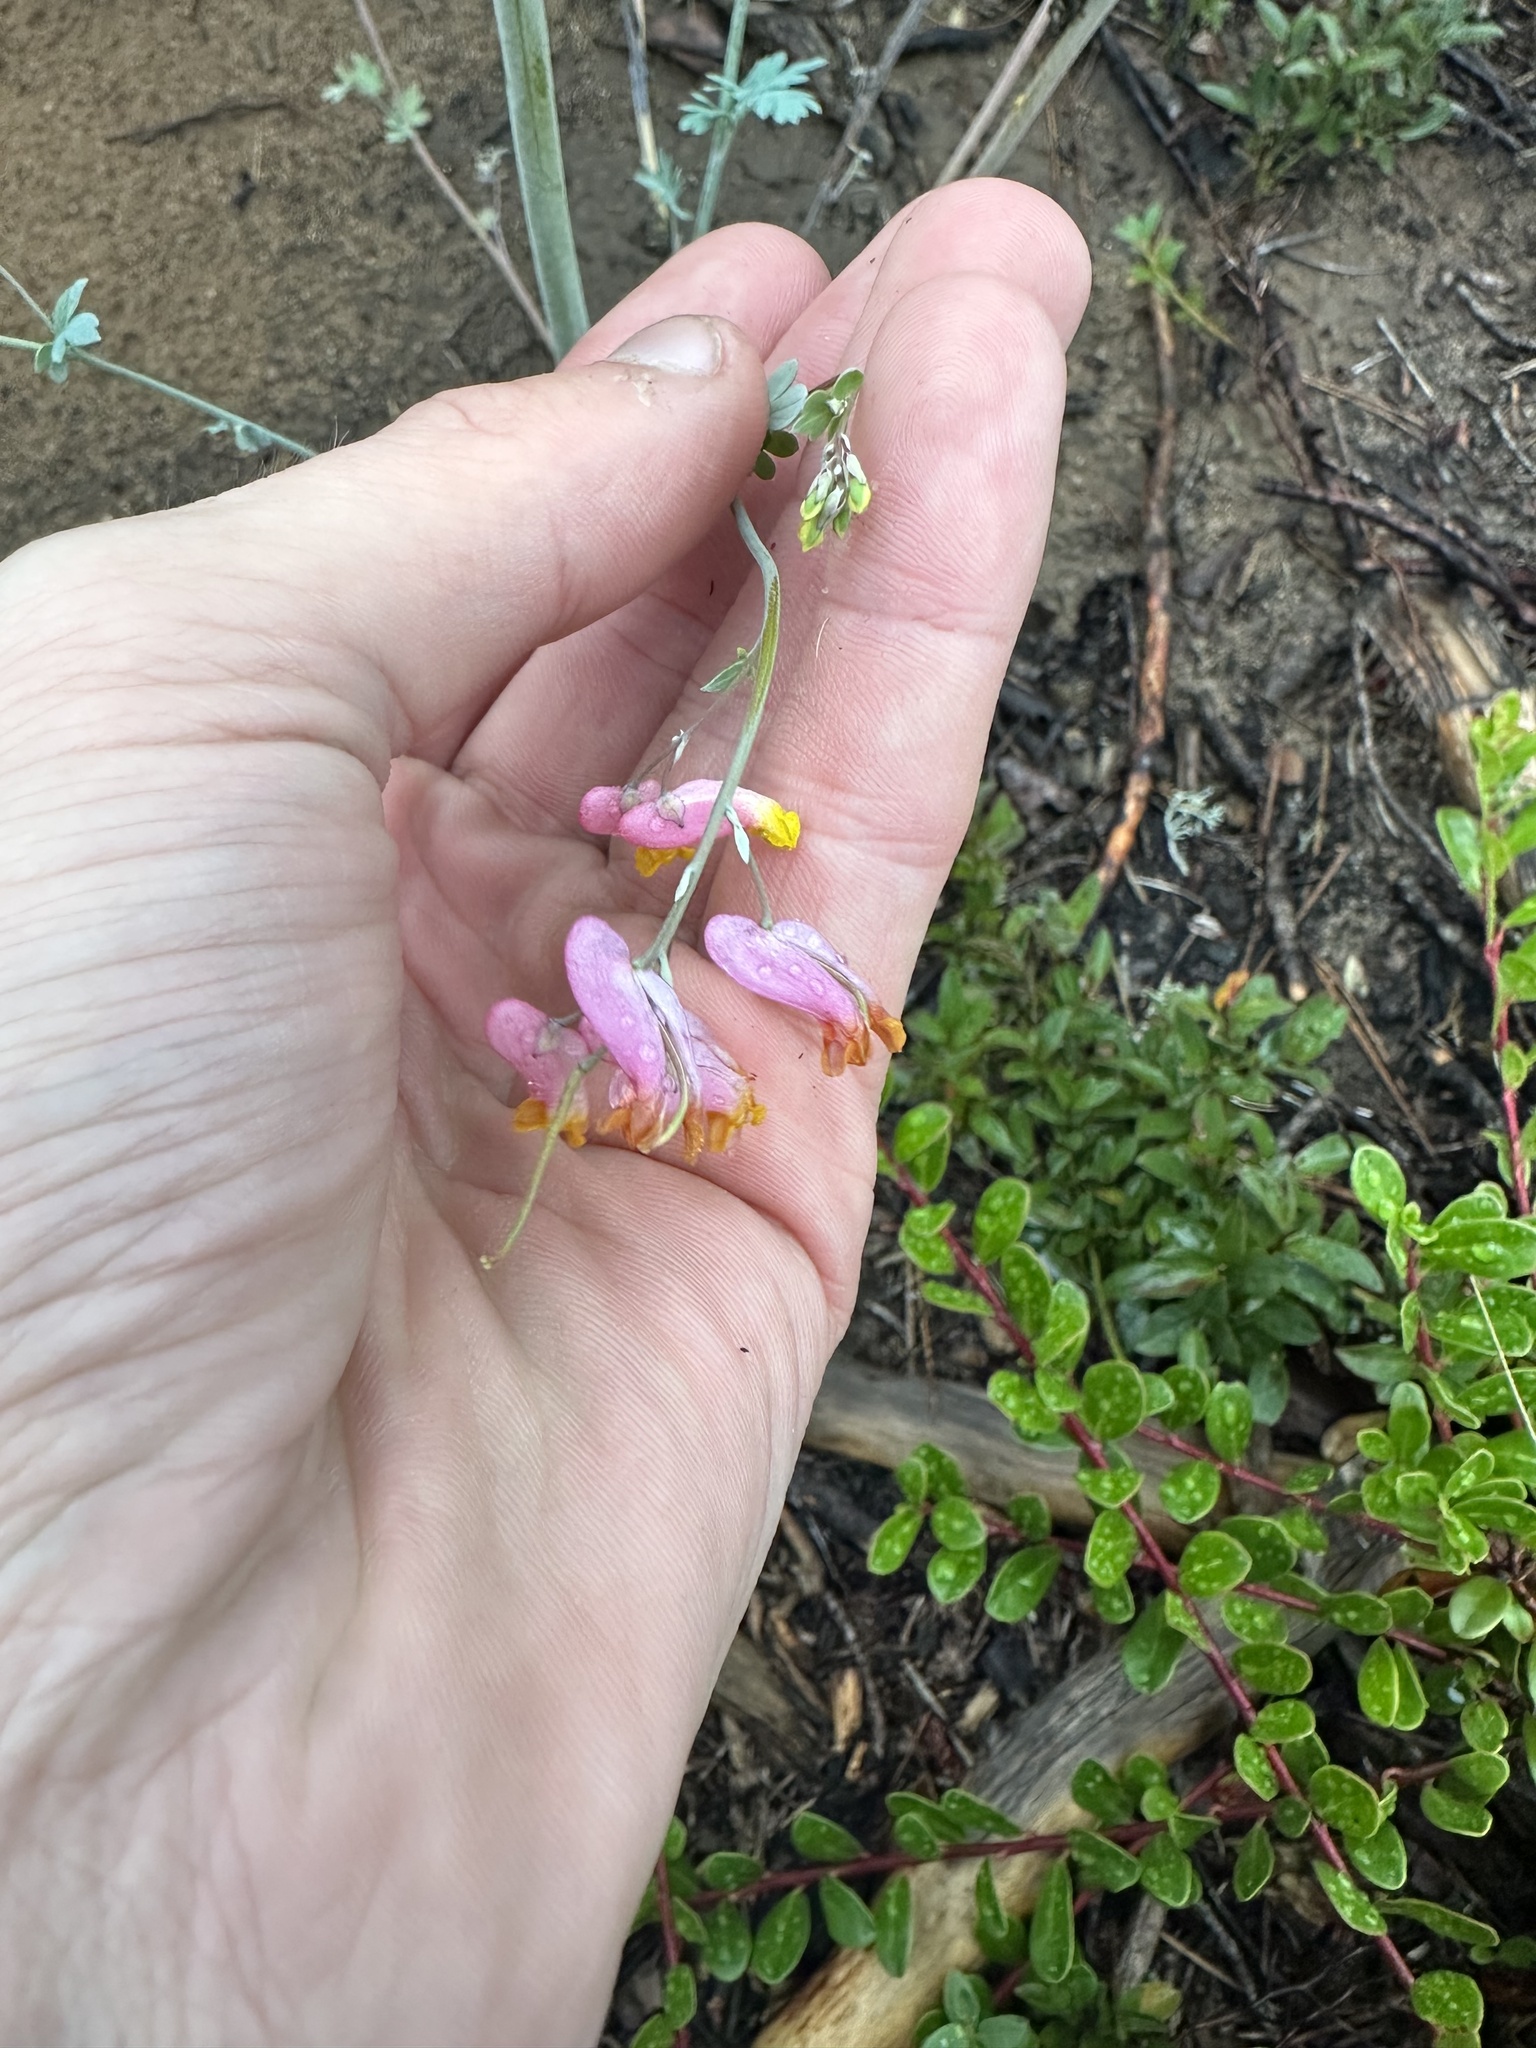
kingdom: Plantae
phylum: Tracheophyta
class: Magnoliopsida
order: Ranunculales
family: Papaveraceae
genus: Capnoides
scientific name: Capnoides sempervirens
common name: Rock harlequin
